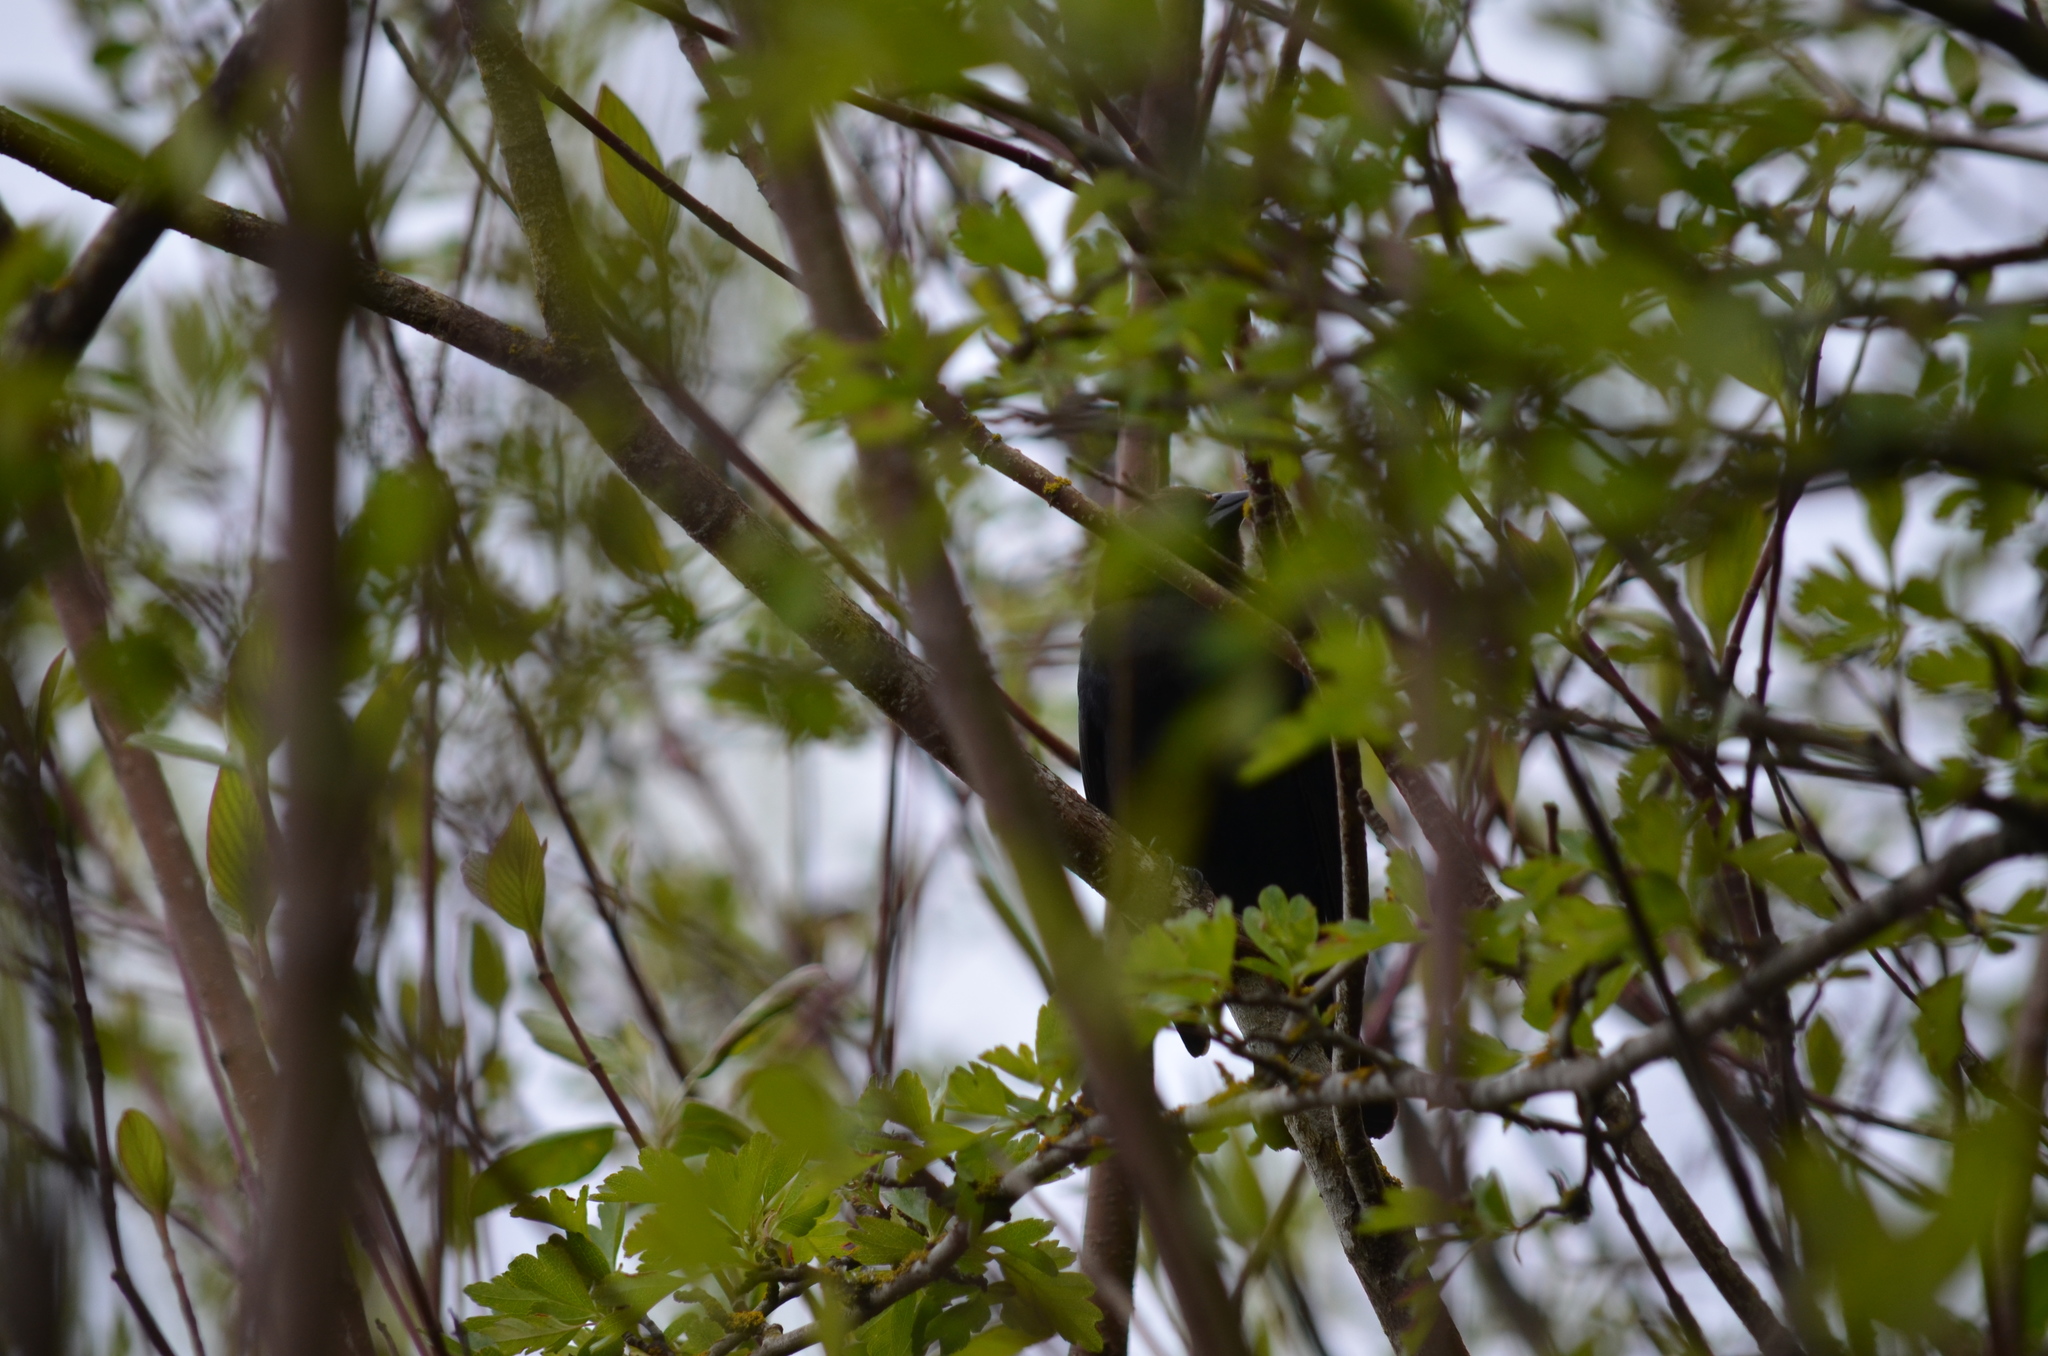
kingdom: Animalia
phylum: Chordata
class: Aves
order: Passeriformes
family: Icteridae
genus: Molothrus
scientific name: Molothrus ater
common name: Brown-headed cowbird
